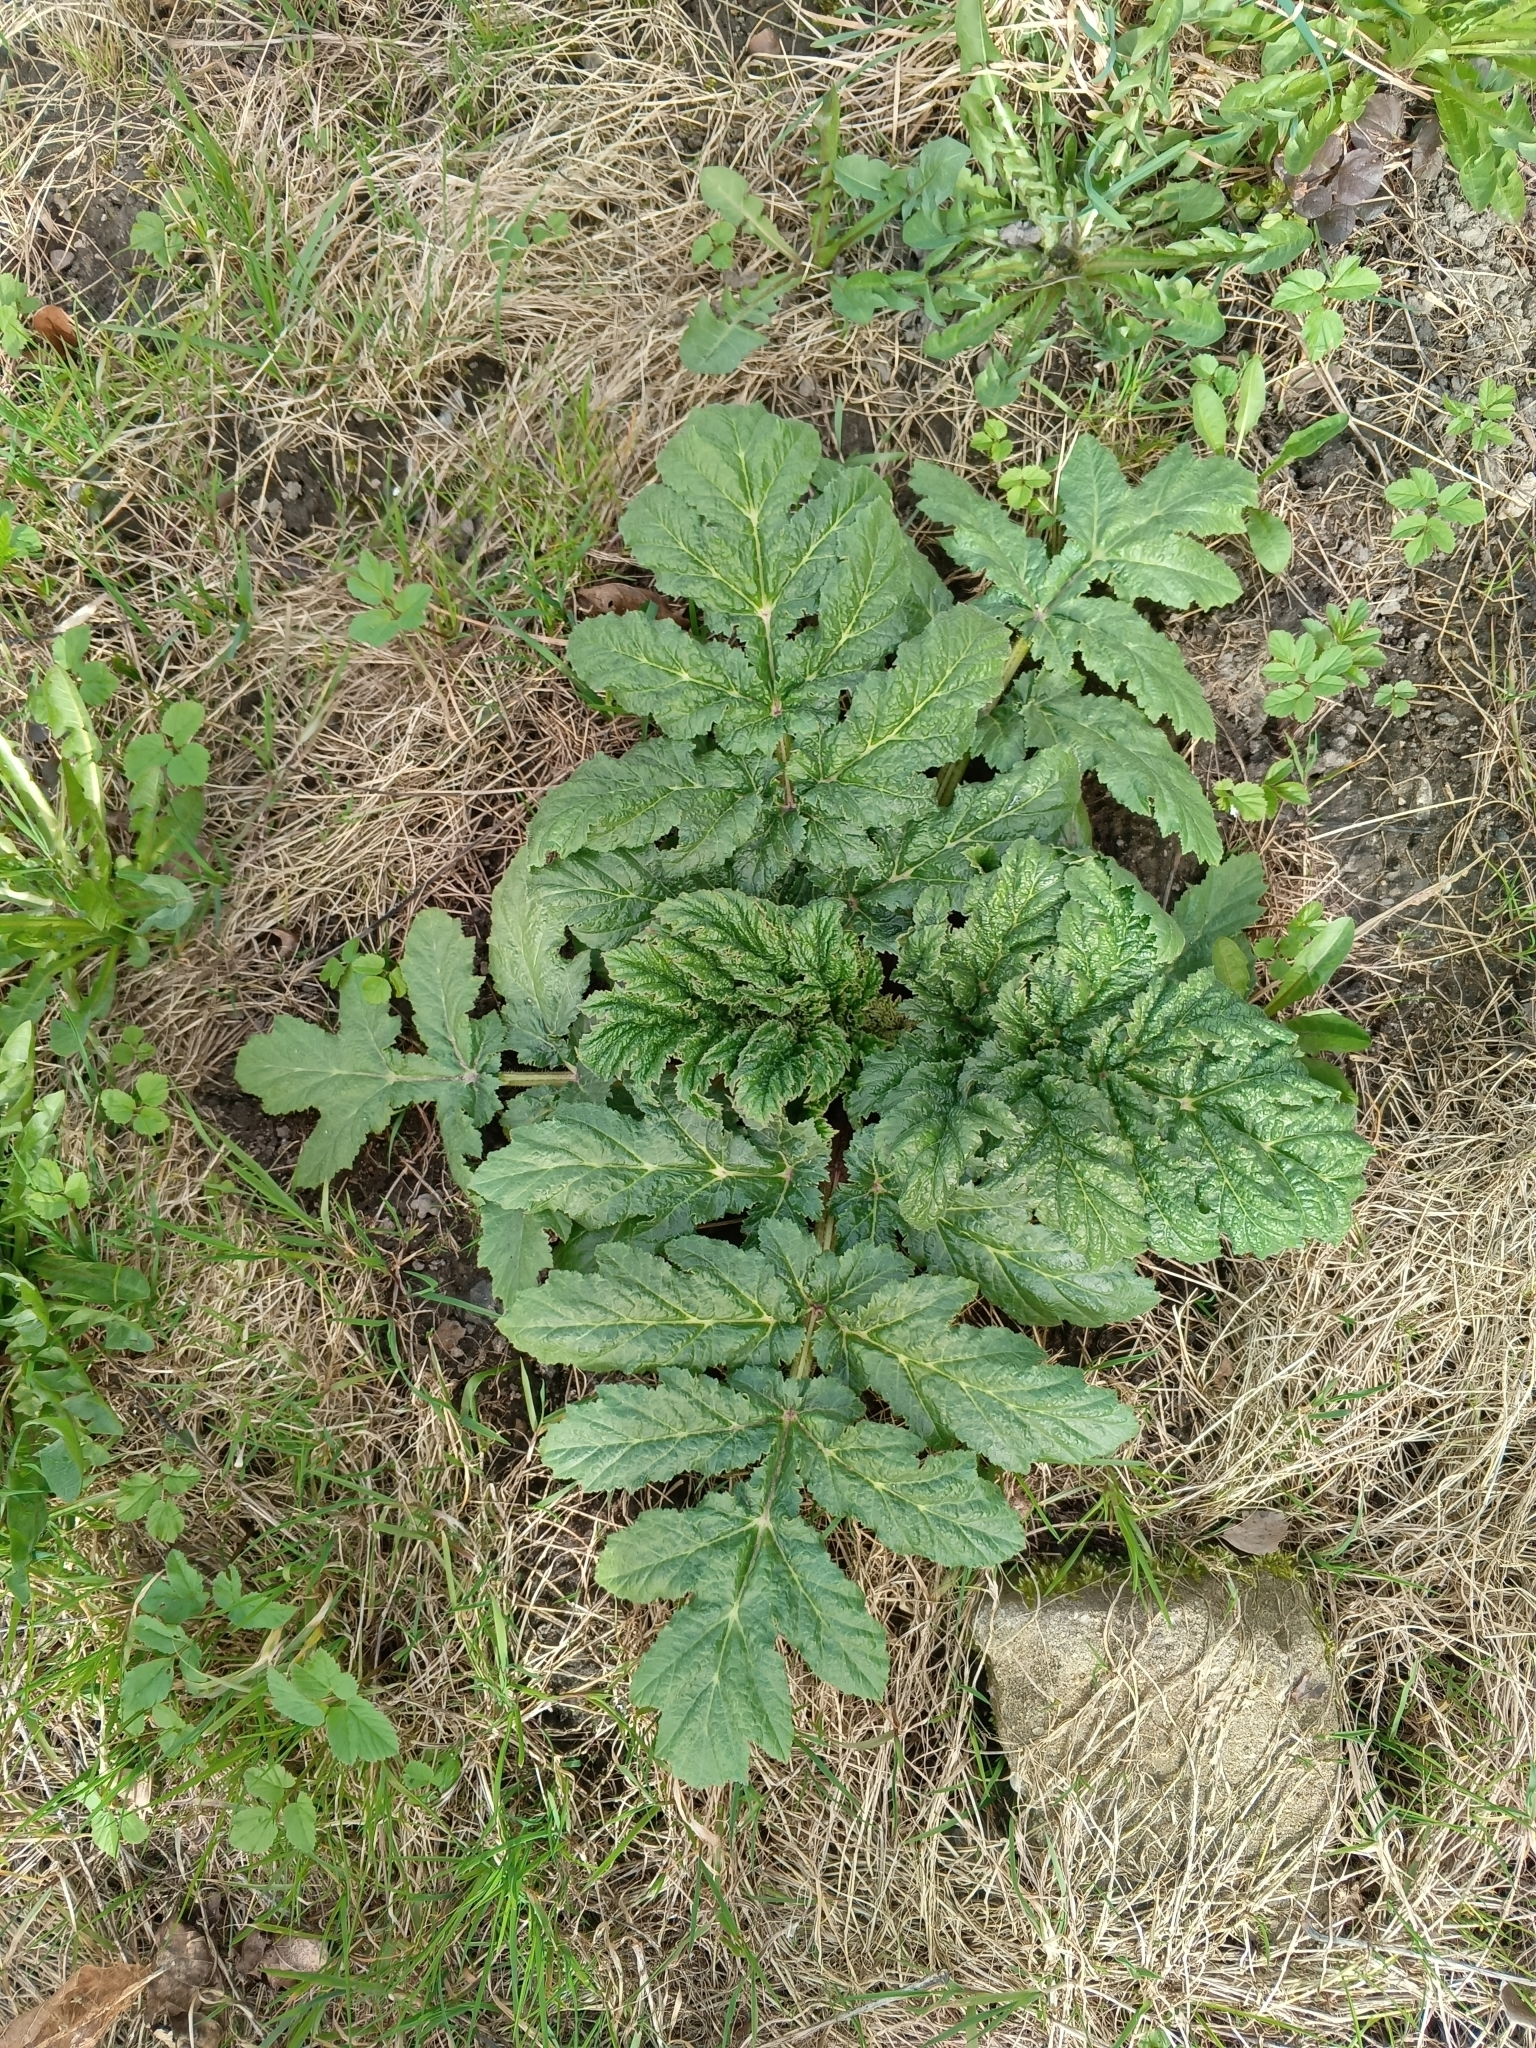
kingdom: Plantae
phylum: Tracheophyta
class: Magnoliopsida
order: Apiales
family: Apiaceae
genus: Heracleum
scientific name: Heracleum sosnowskyi
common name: Sosnowsky's hogweed
